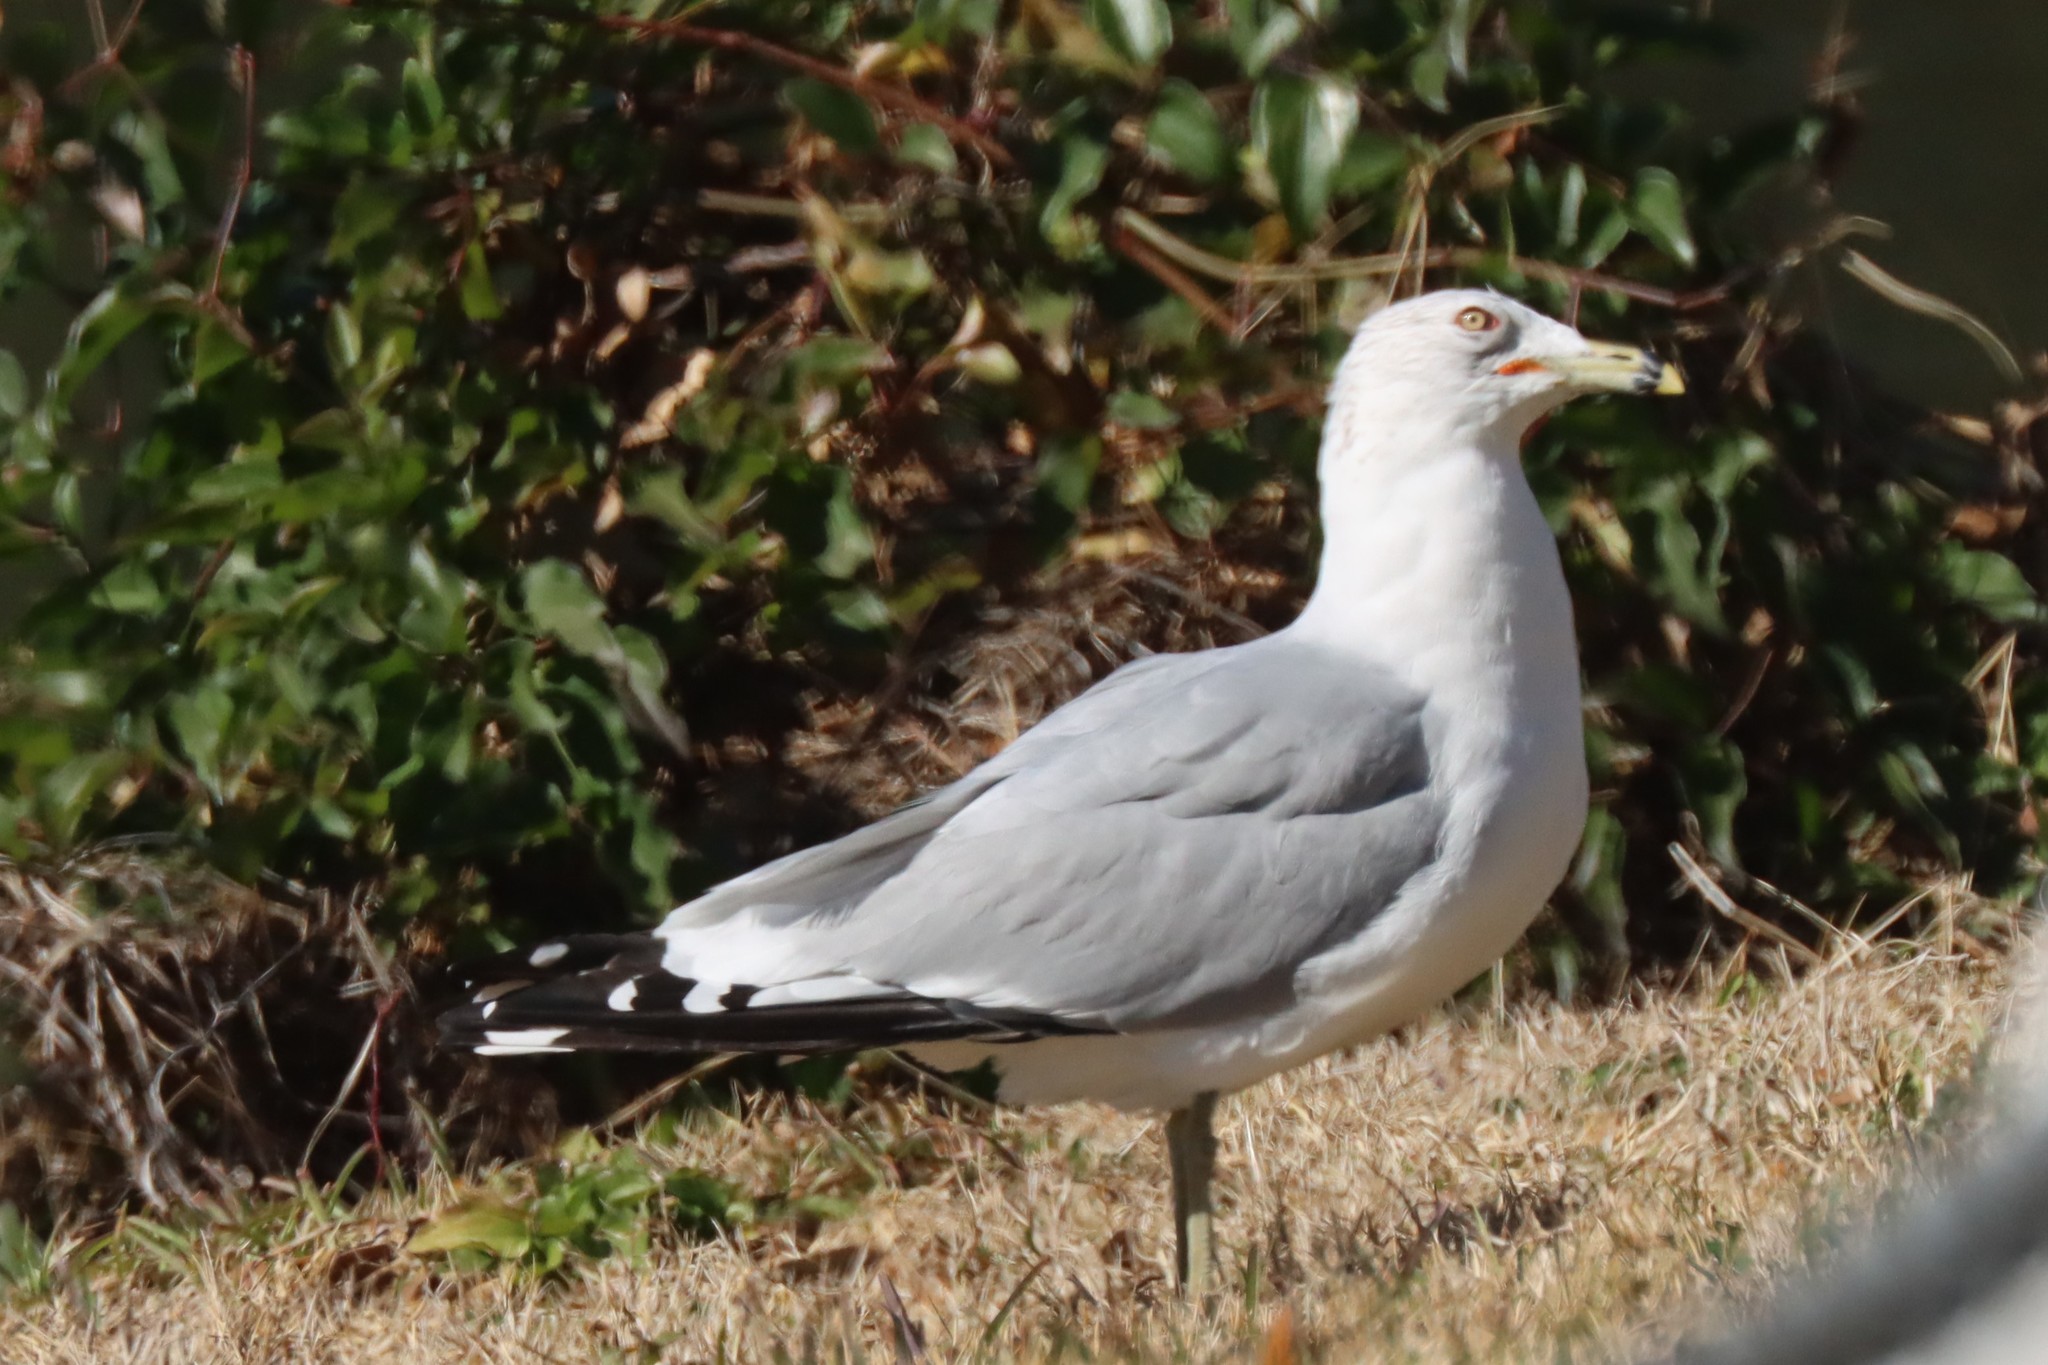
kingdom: Animalia
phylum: Chordata
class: Aves
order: Charadriiformes
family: Laridae
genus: Larus
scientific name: Larus delawarensis
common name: Ring-billed gull
